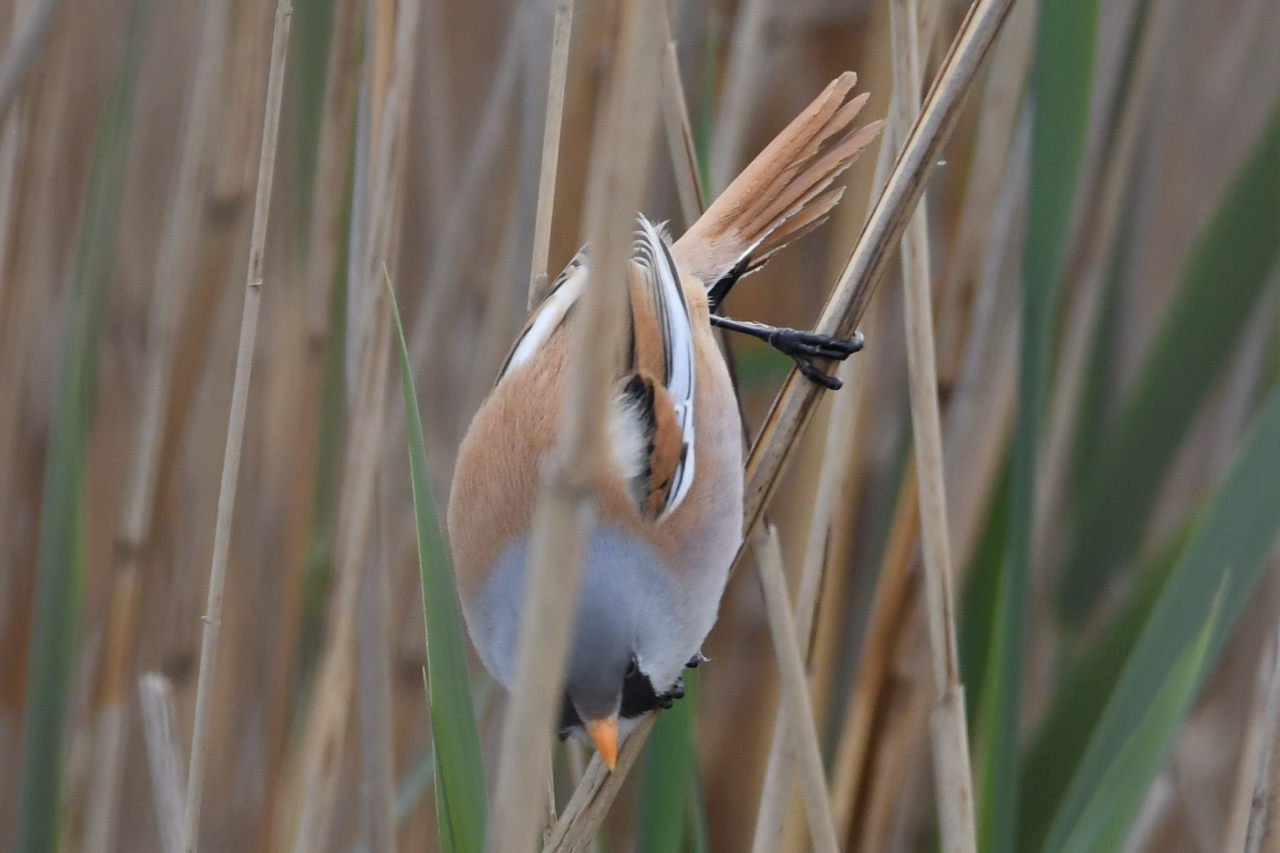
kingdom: Animalia
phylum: Chordata
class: Aves
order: Passeriformes
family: Panuridae
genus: Panurus
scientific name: Panurus biarmicus
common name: Bearded reedling
